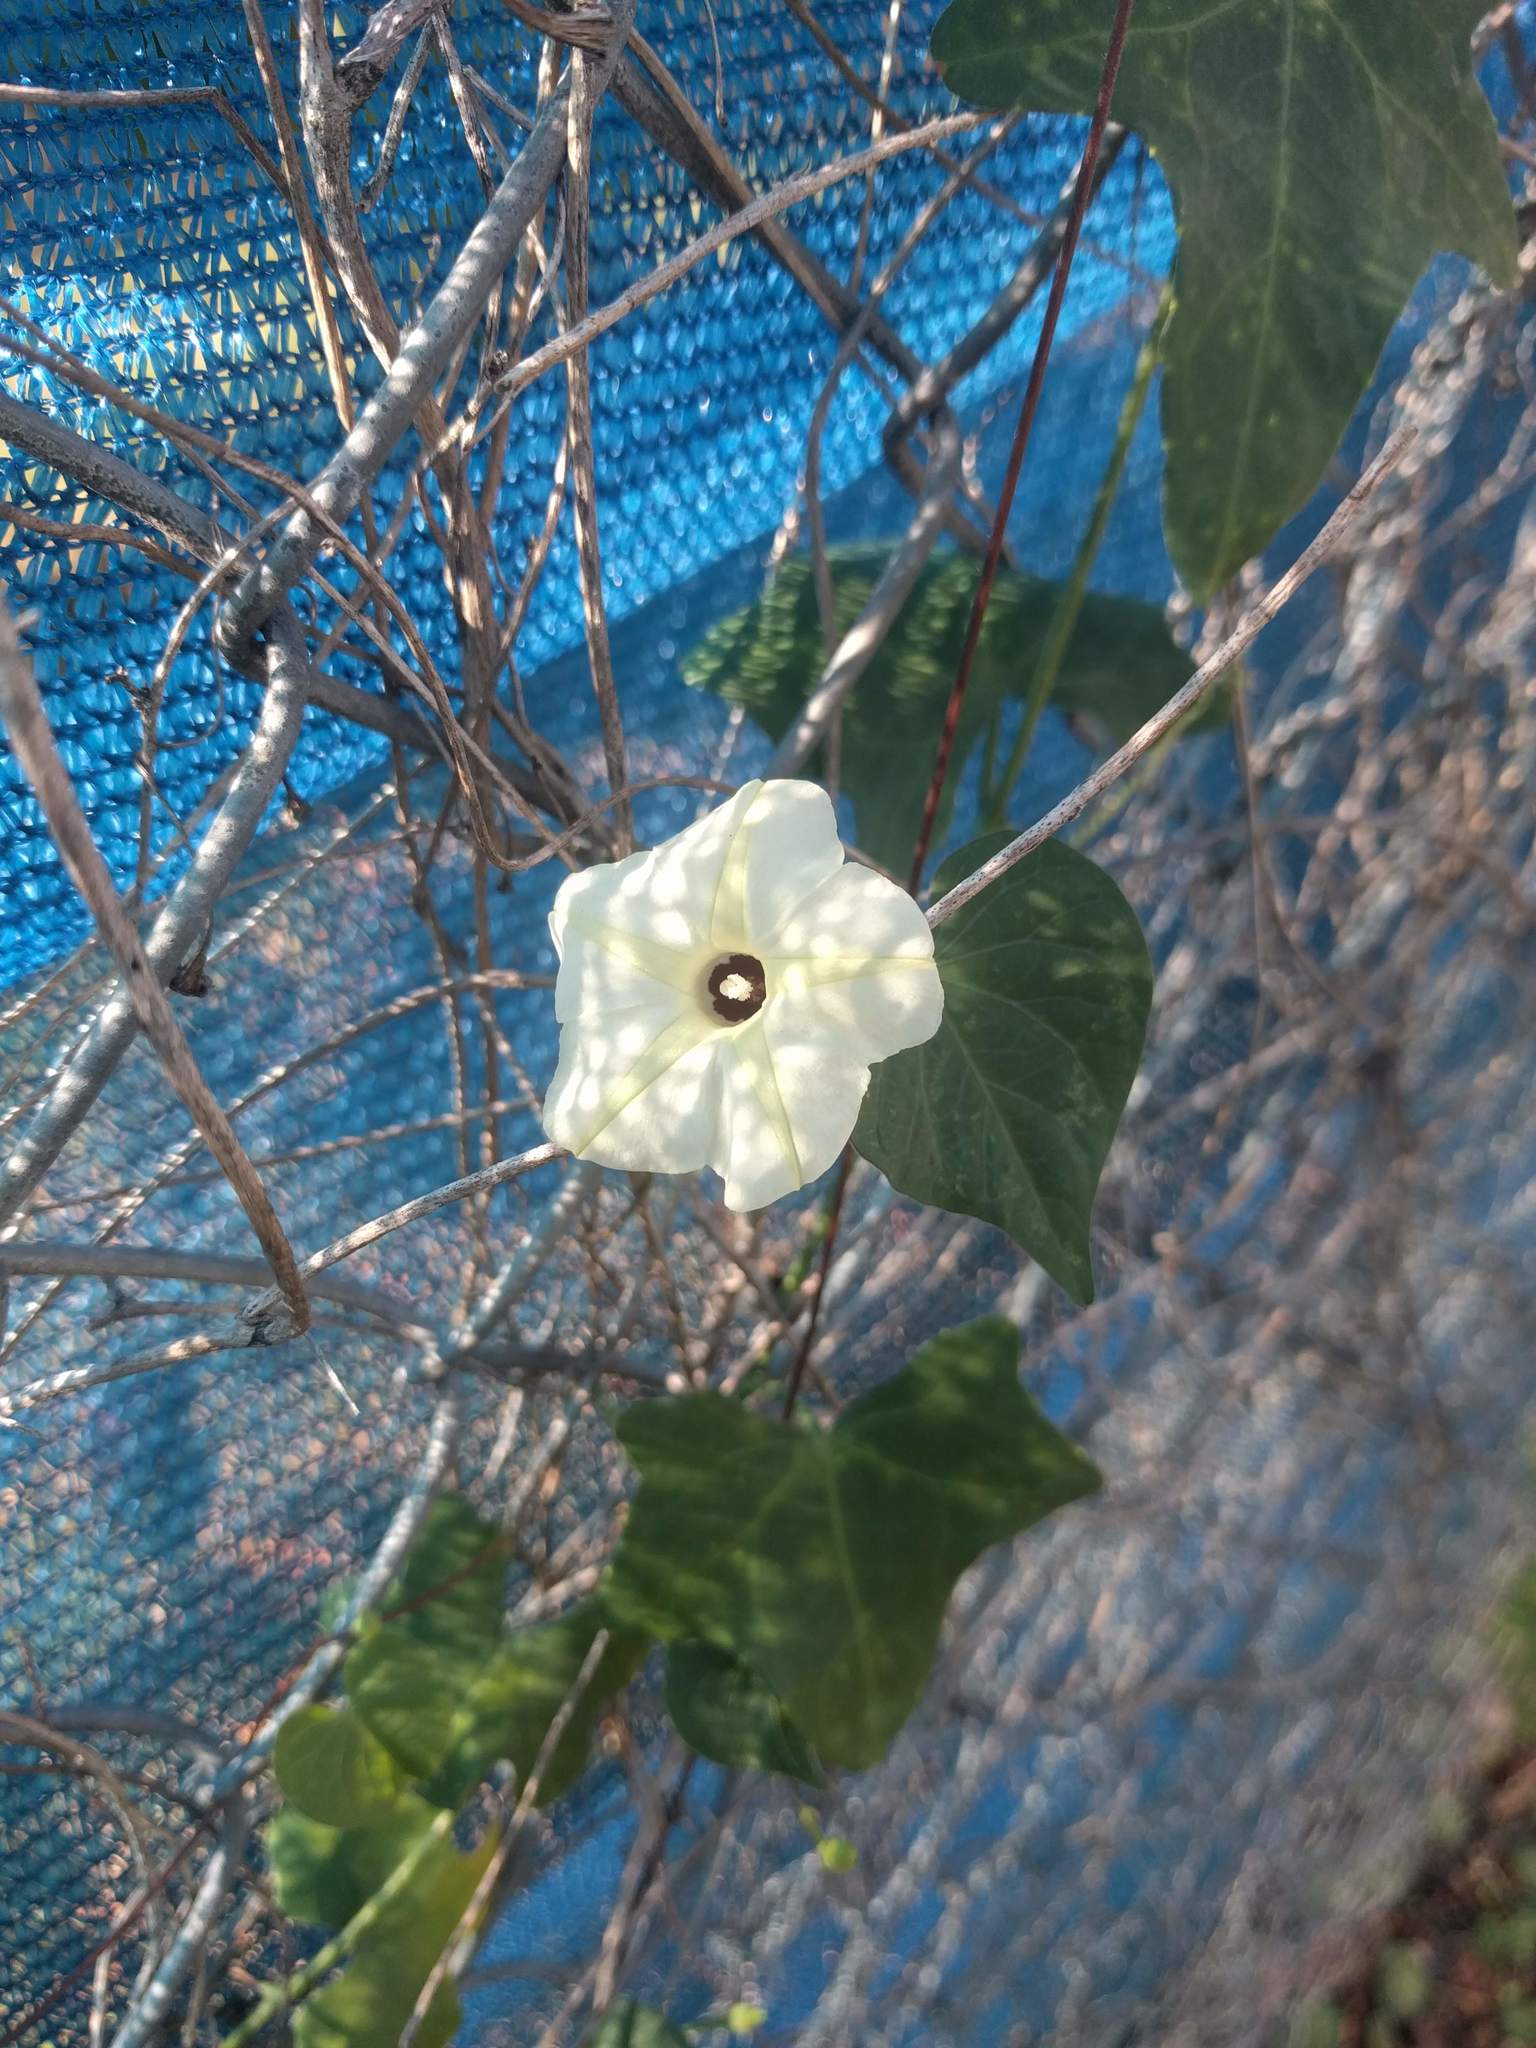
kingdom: Plantae
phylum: Tracheophyta
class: Magnoliopsida
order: Solanales
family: Convolvulaceae
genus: Ipomoea
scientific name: Ipomoea obscura
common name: Obscure morning-glory
